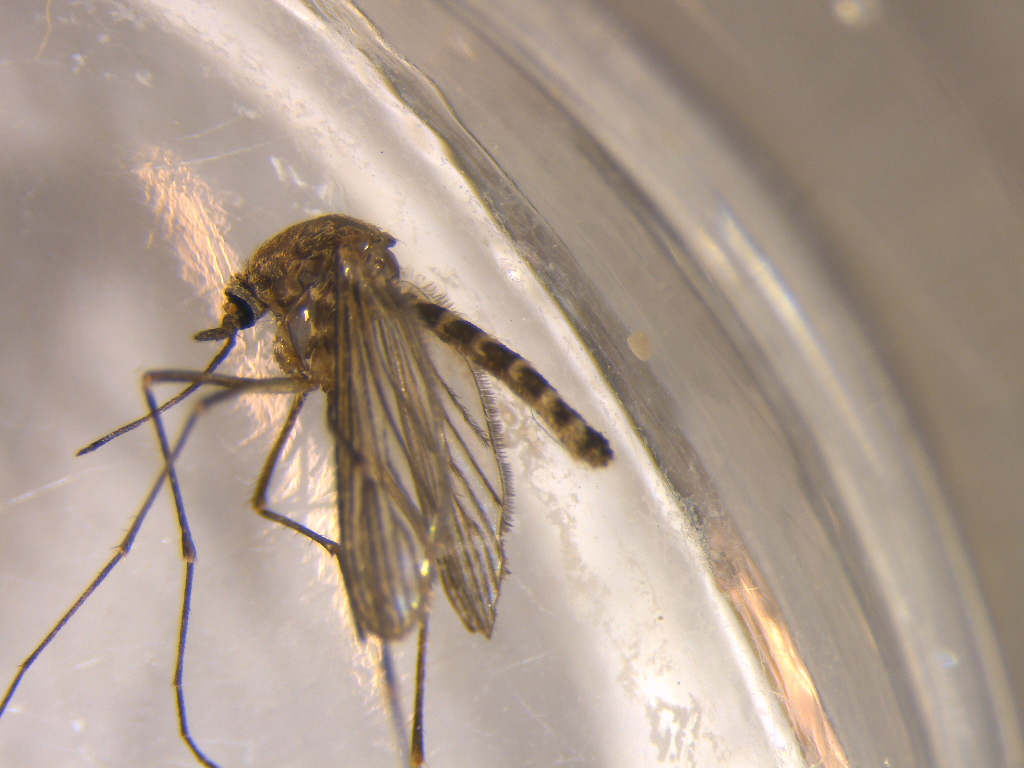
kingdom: Animalia
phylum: Arthropoda
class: Insecta
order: Diptera
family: Culicidae
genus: Culex
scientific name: Culex pervigilans
